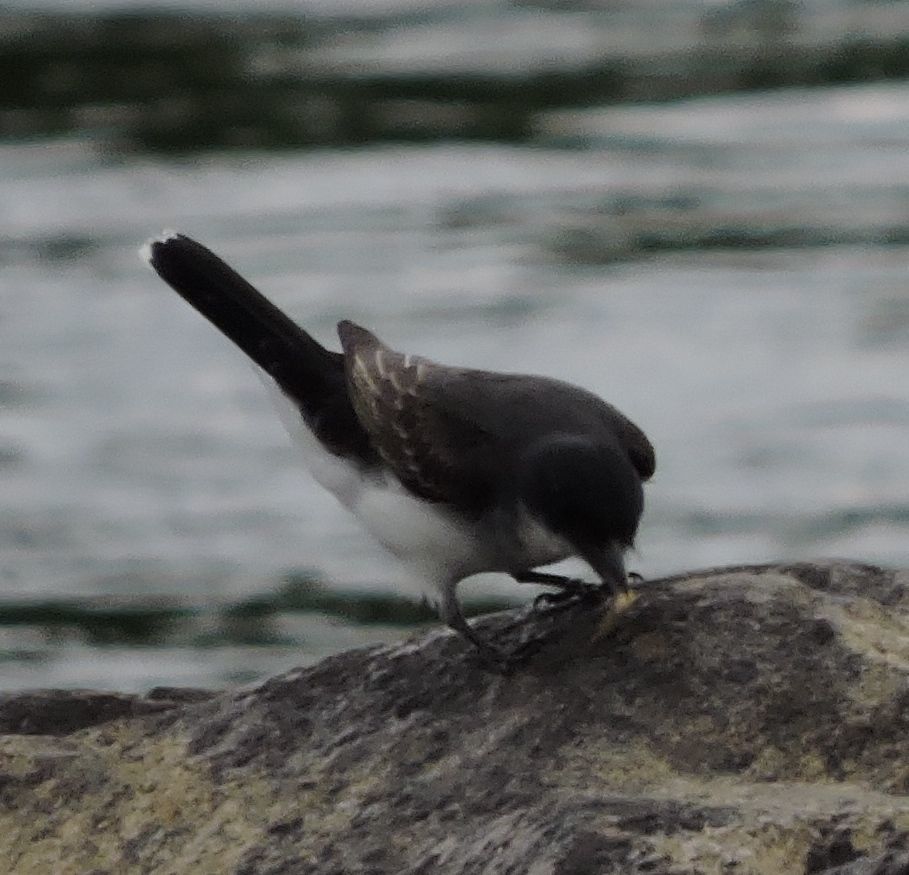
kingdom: Animalia
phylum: Chordata
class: Aves
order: Passeriformes
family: Tyrannidae
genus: Tyrannus
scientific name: Tyrannus tyrannus
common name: Eastern kingbird
